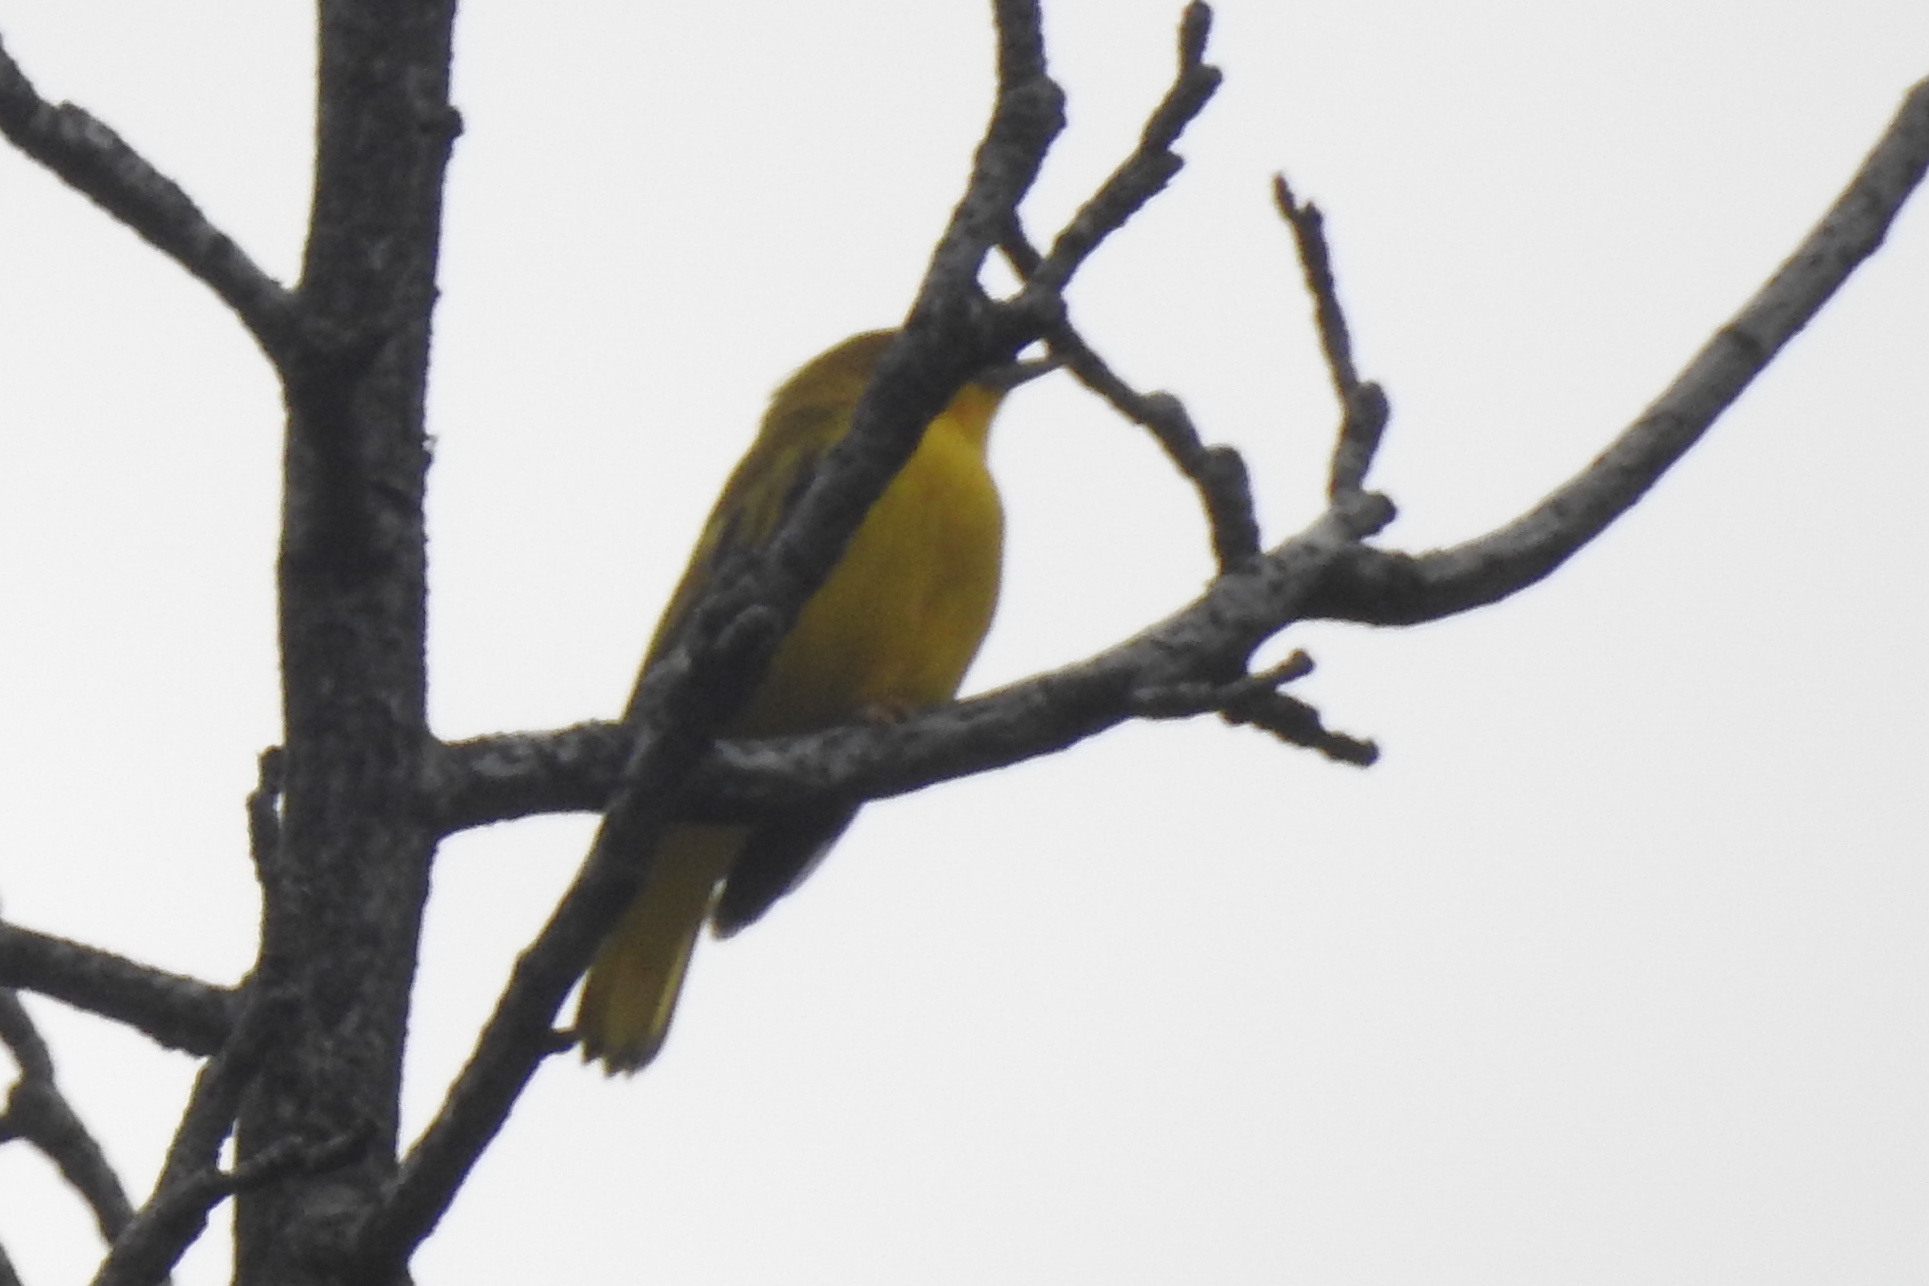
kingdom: Animalia
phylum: Chordata
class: Aves
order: Passeriformes
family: Parulidae
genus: Setophaga
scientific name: Setophaga petechia
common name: Yellow warbler
